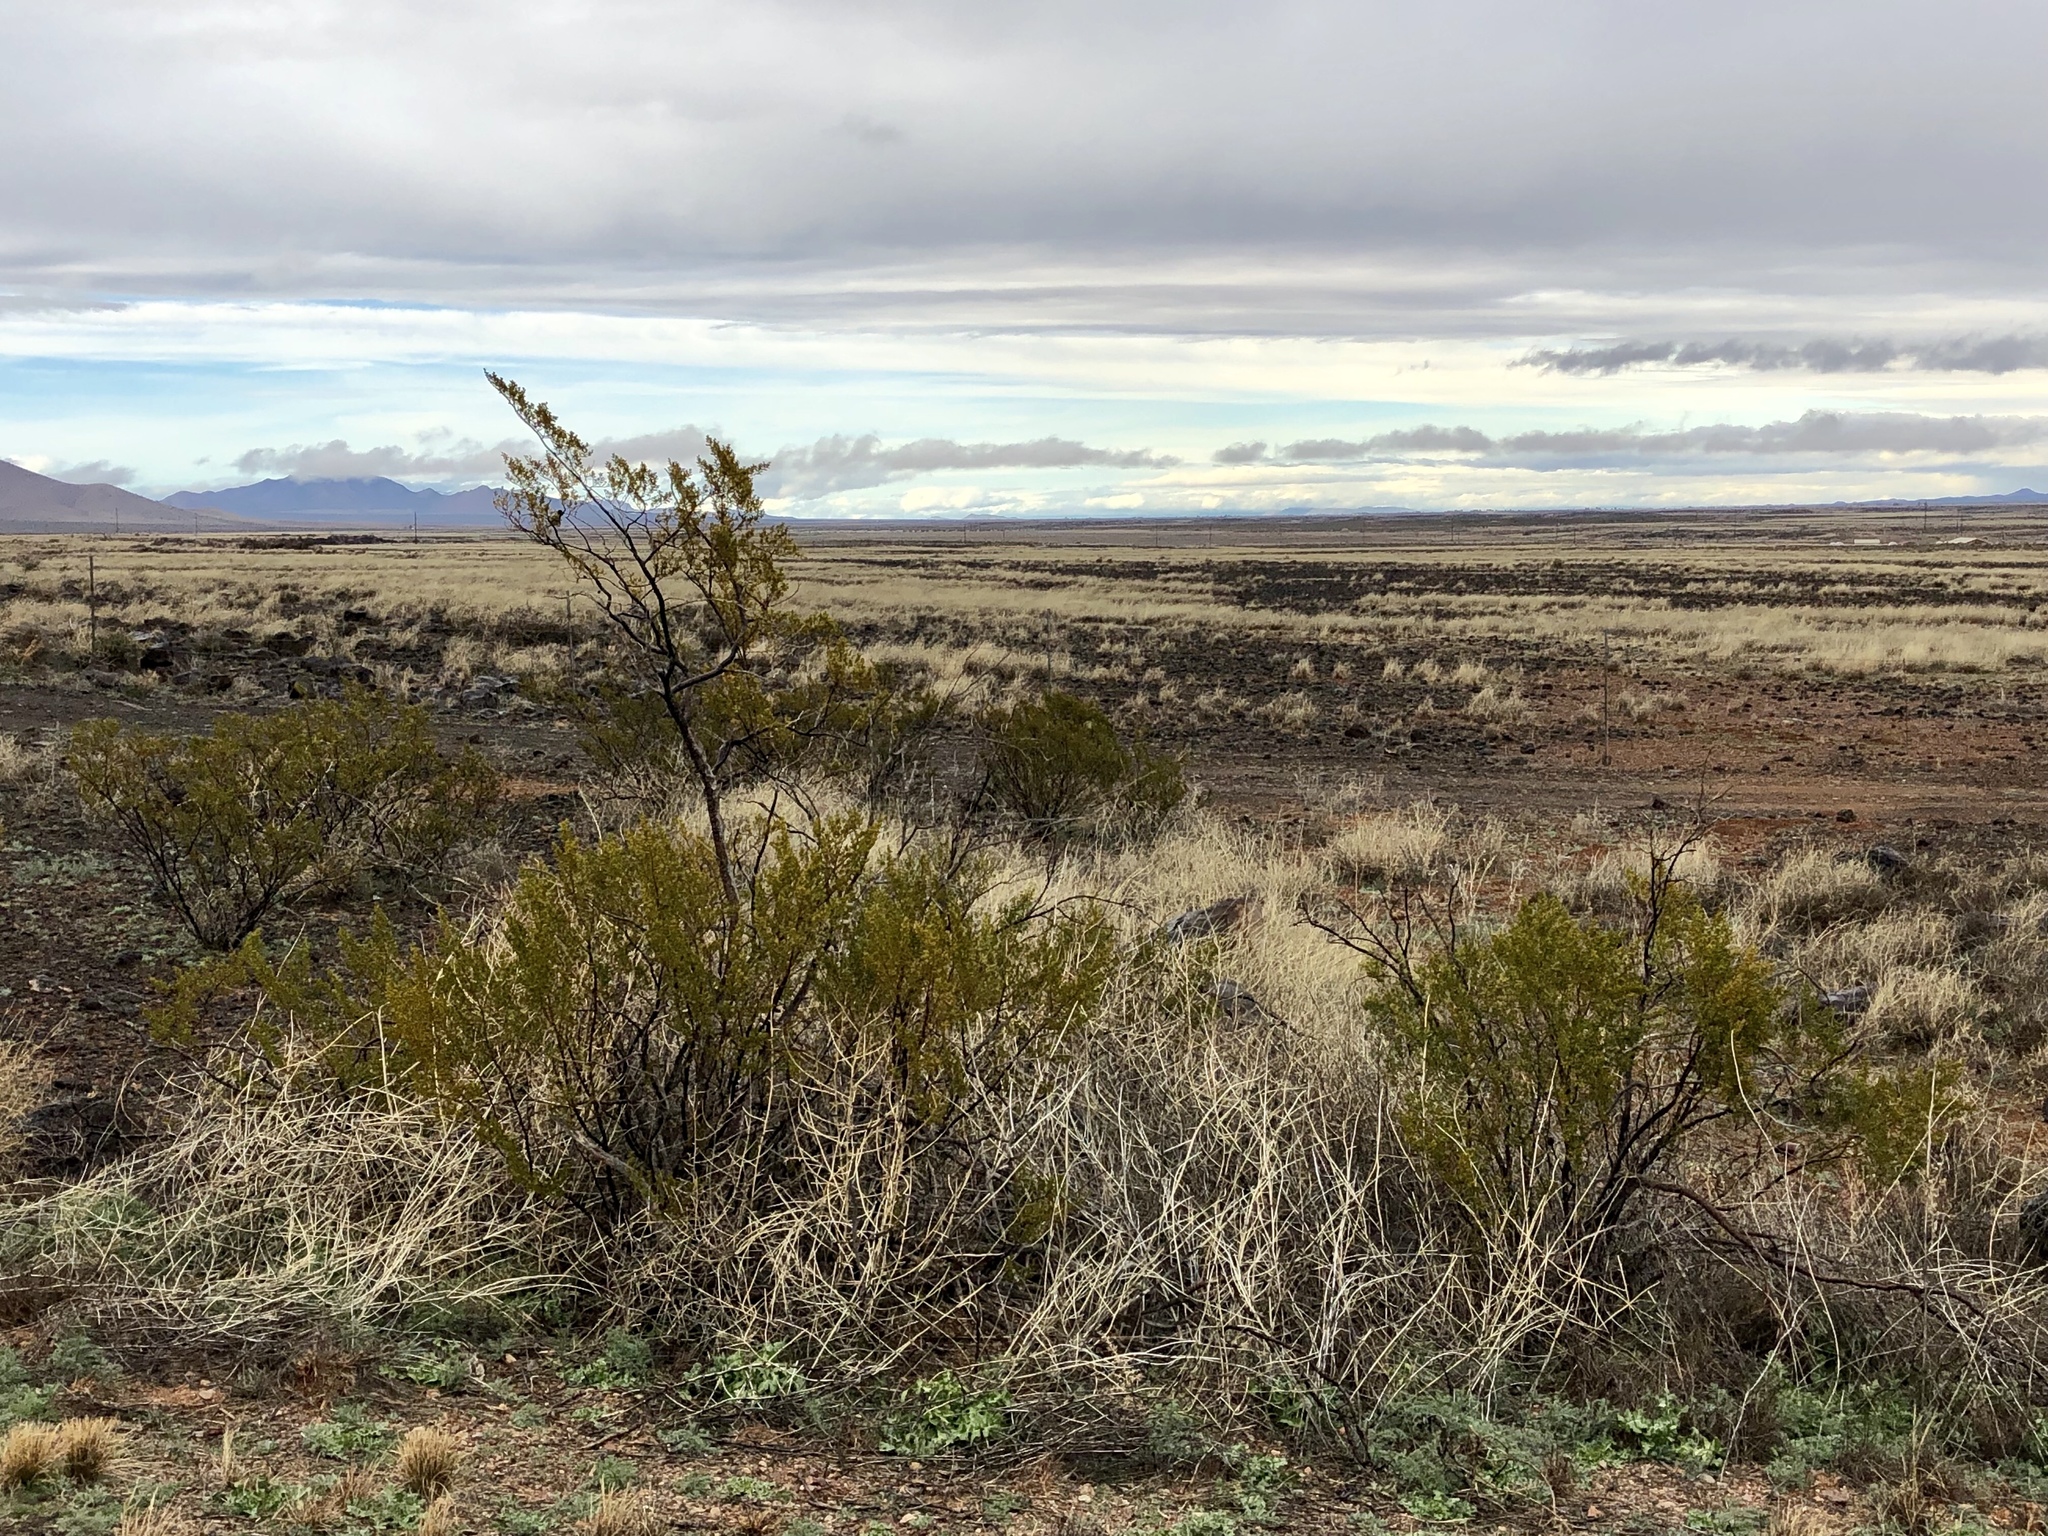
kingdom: Plantae
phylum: Tracheophyta
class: Magnoliopsida
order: Zygophyllales
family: Zygophyllaceae
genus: Larrea
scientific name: Larrea tridentata
